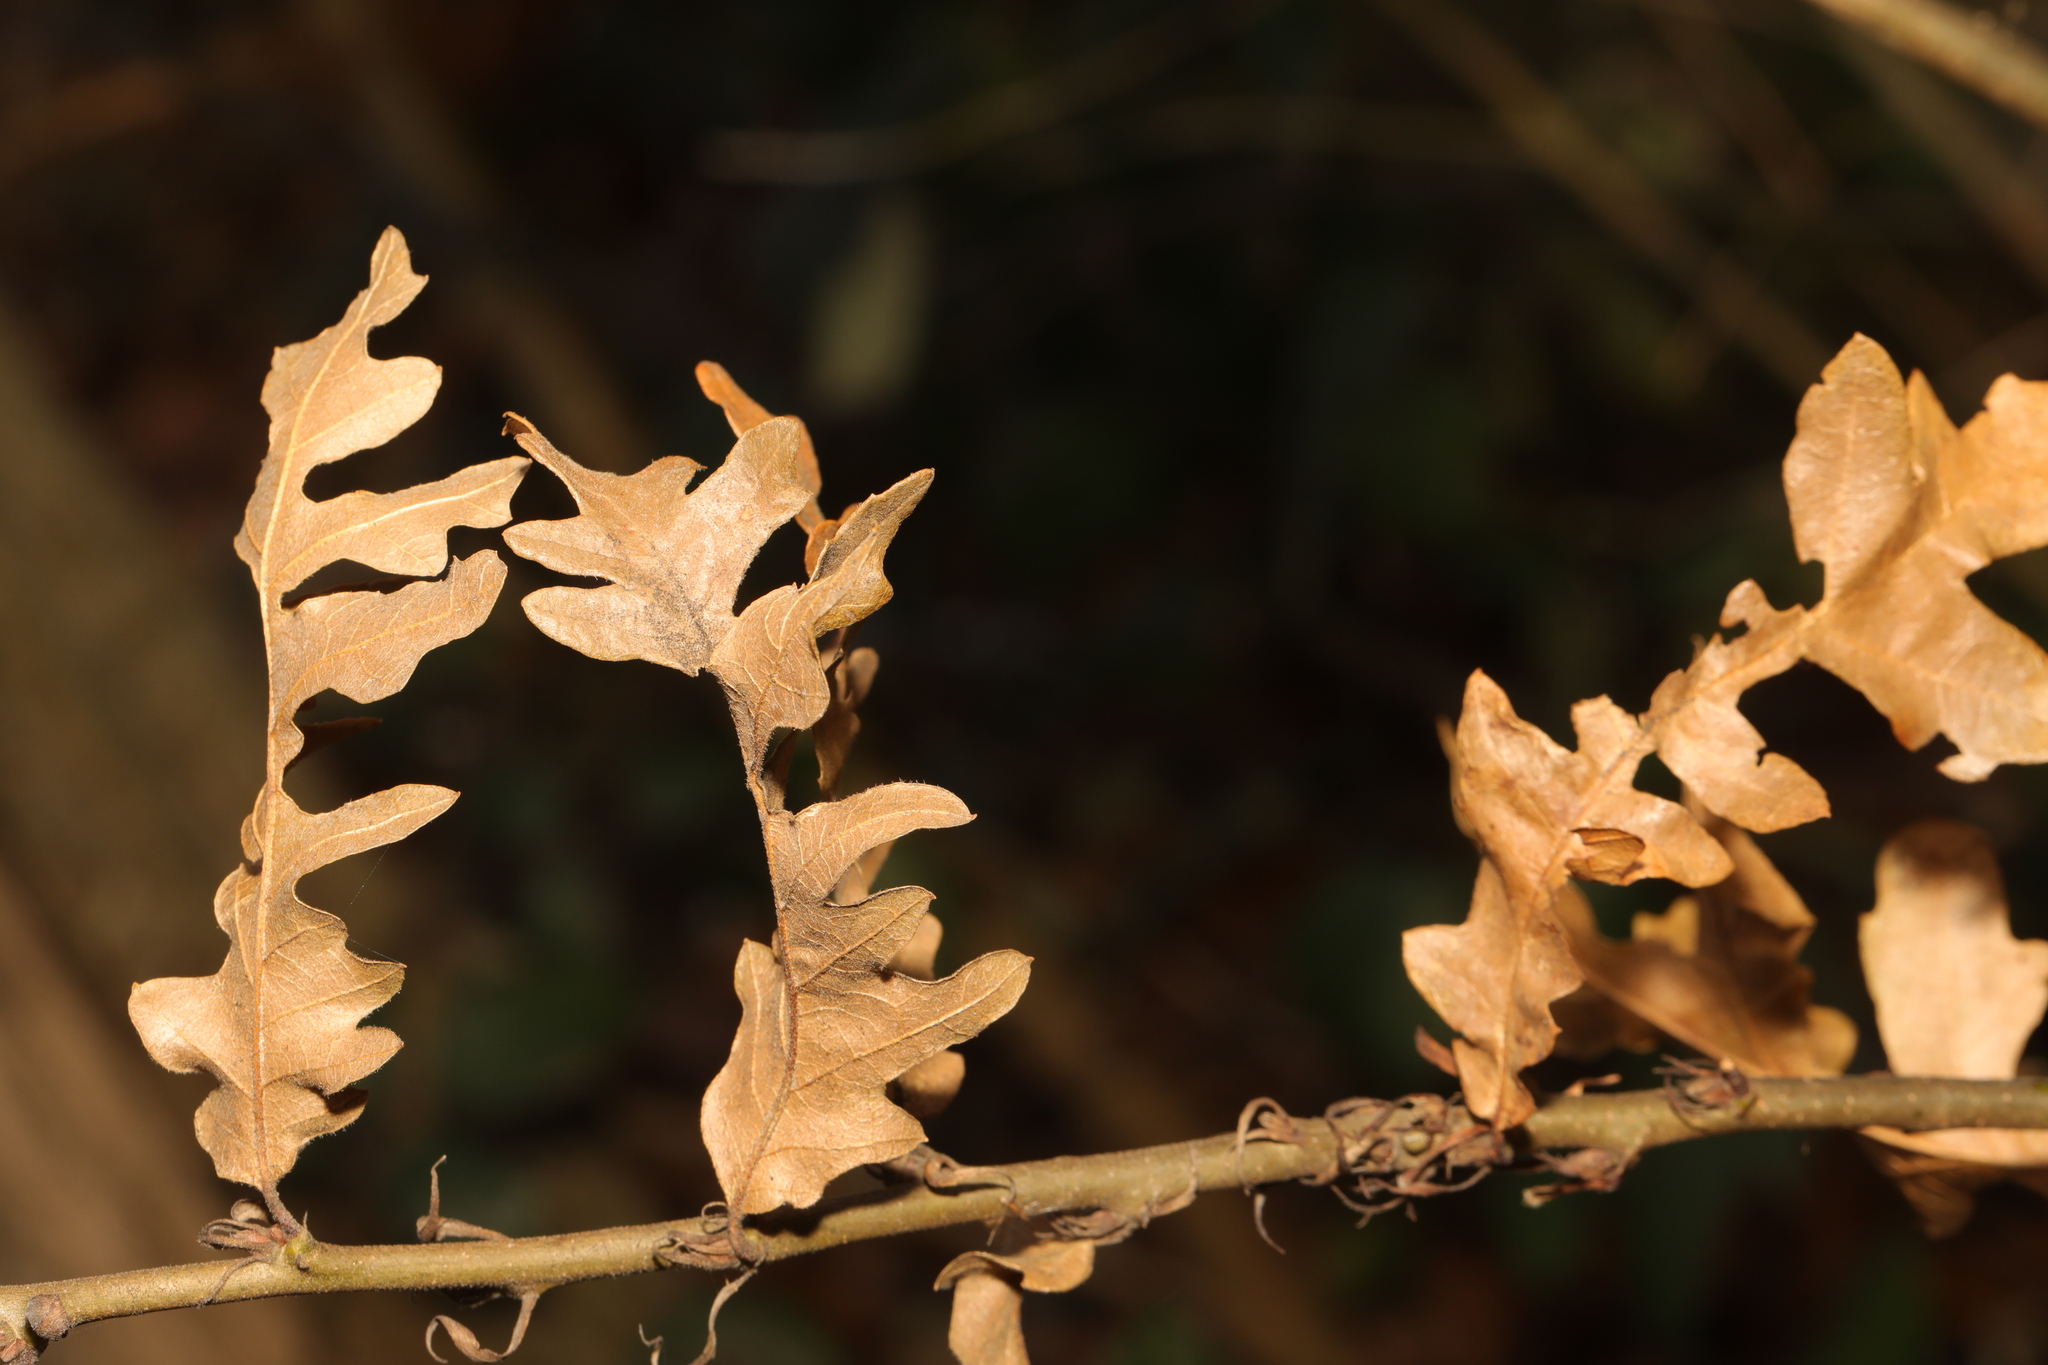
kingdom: Plantae
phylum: Tracheophyta
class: Magnoliopsida
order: Fagales
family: Fagaceae
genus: Quercus
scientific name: Quercus cerris
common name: Turkey oak
